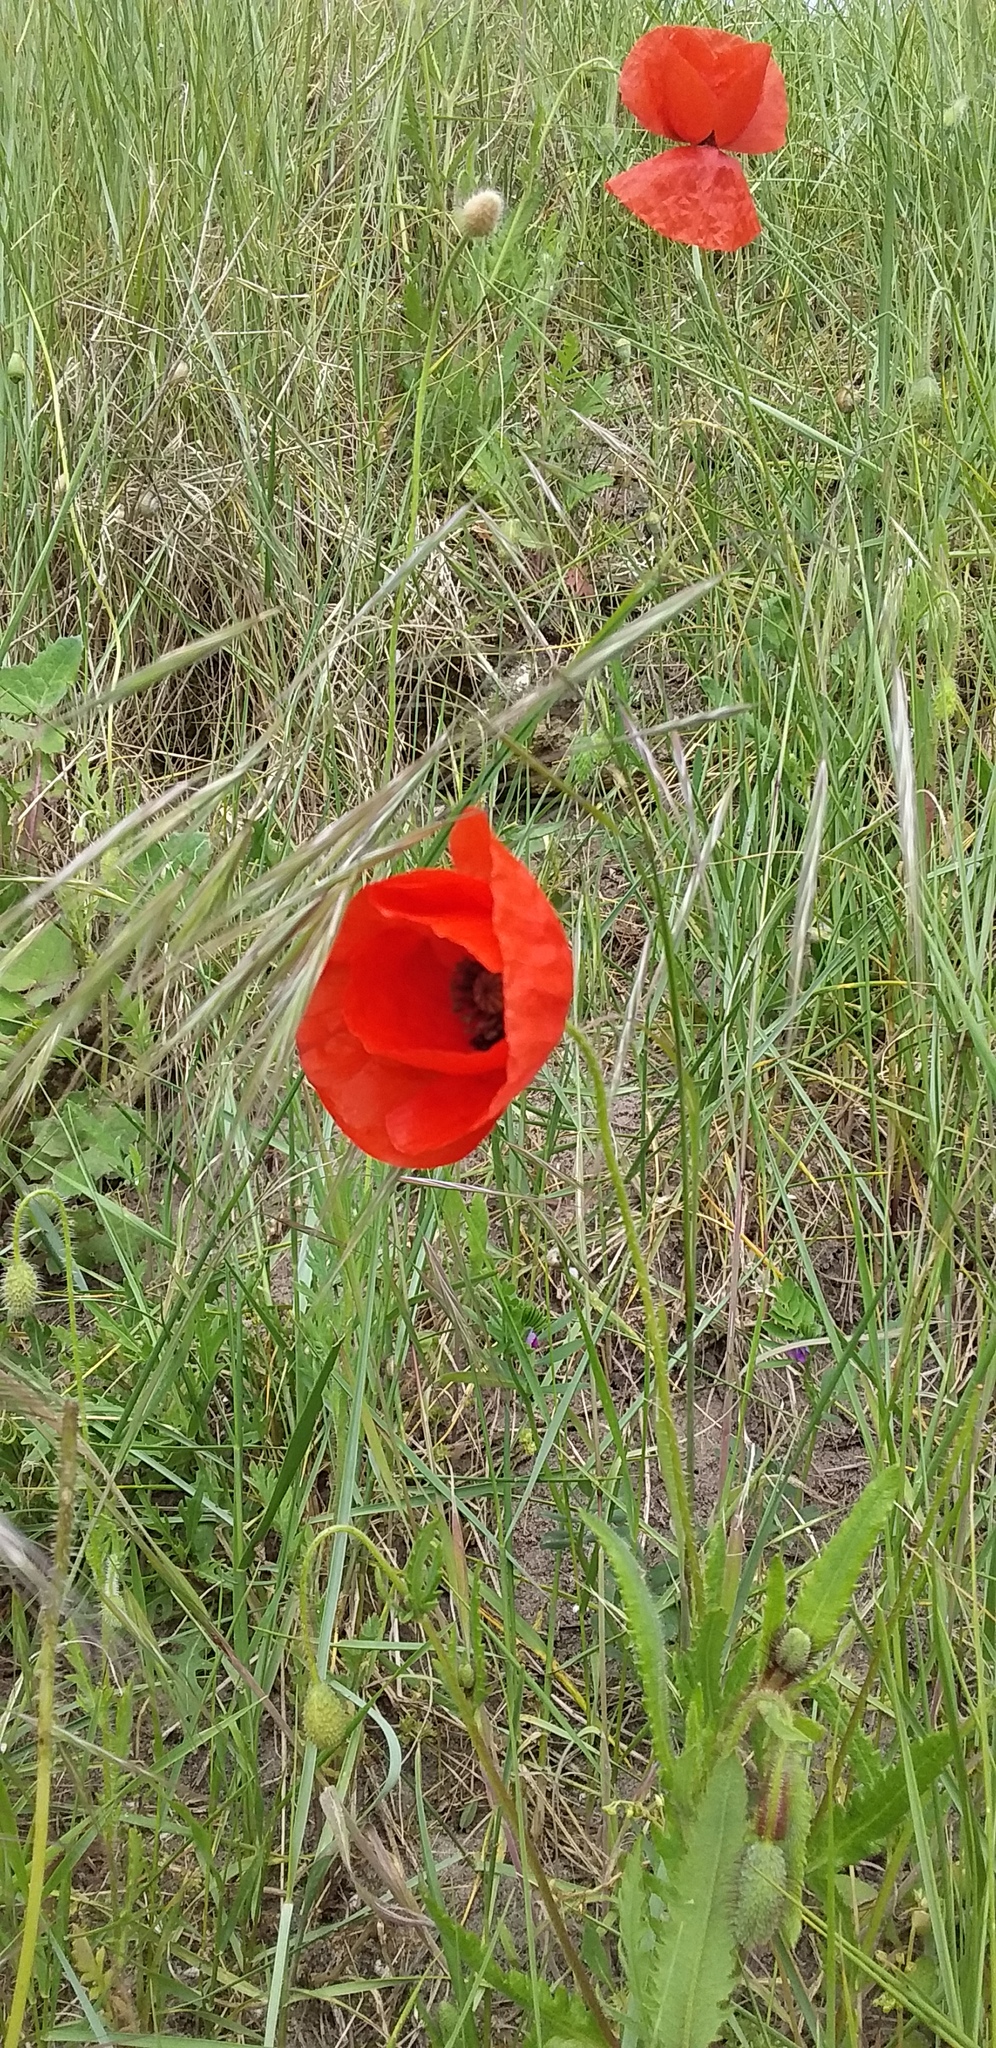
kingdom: Plantae
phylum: Tracheophyta
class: Magnoliopsida
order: Ranunculales
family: Papaveraceae
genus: Papaver
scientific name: Papaver rhoeas
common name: Corn poppy
